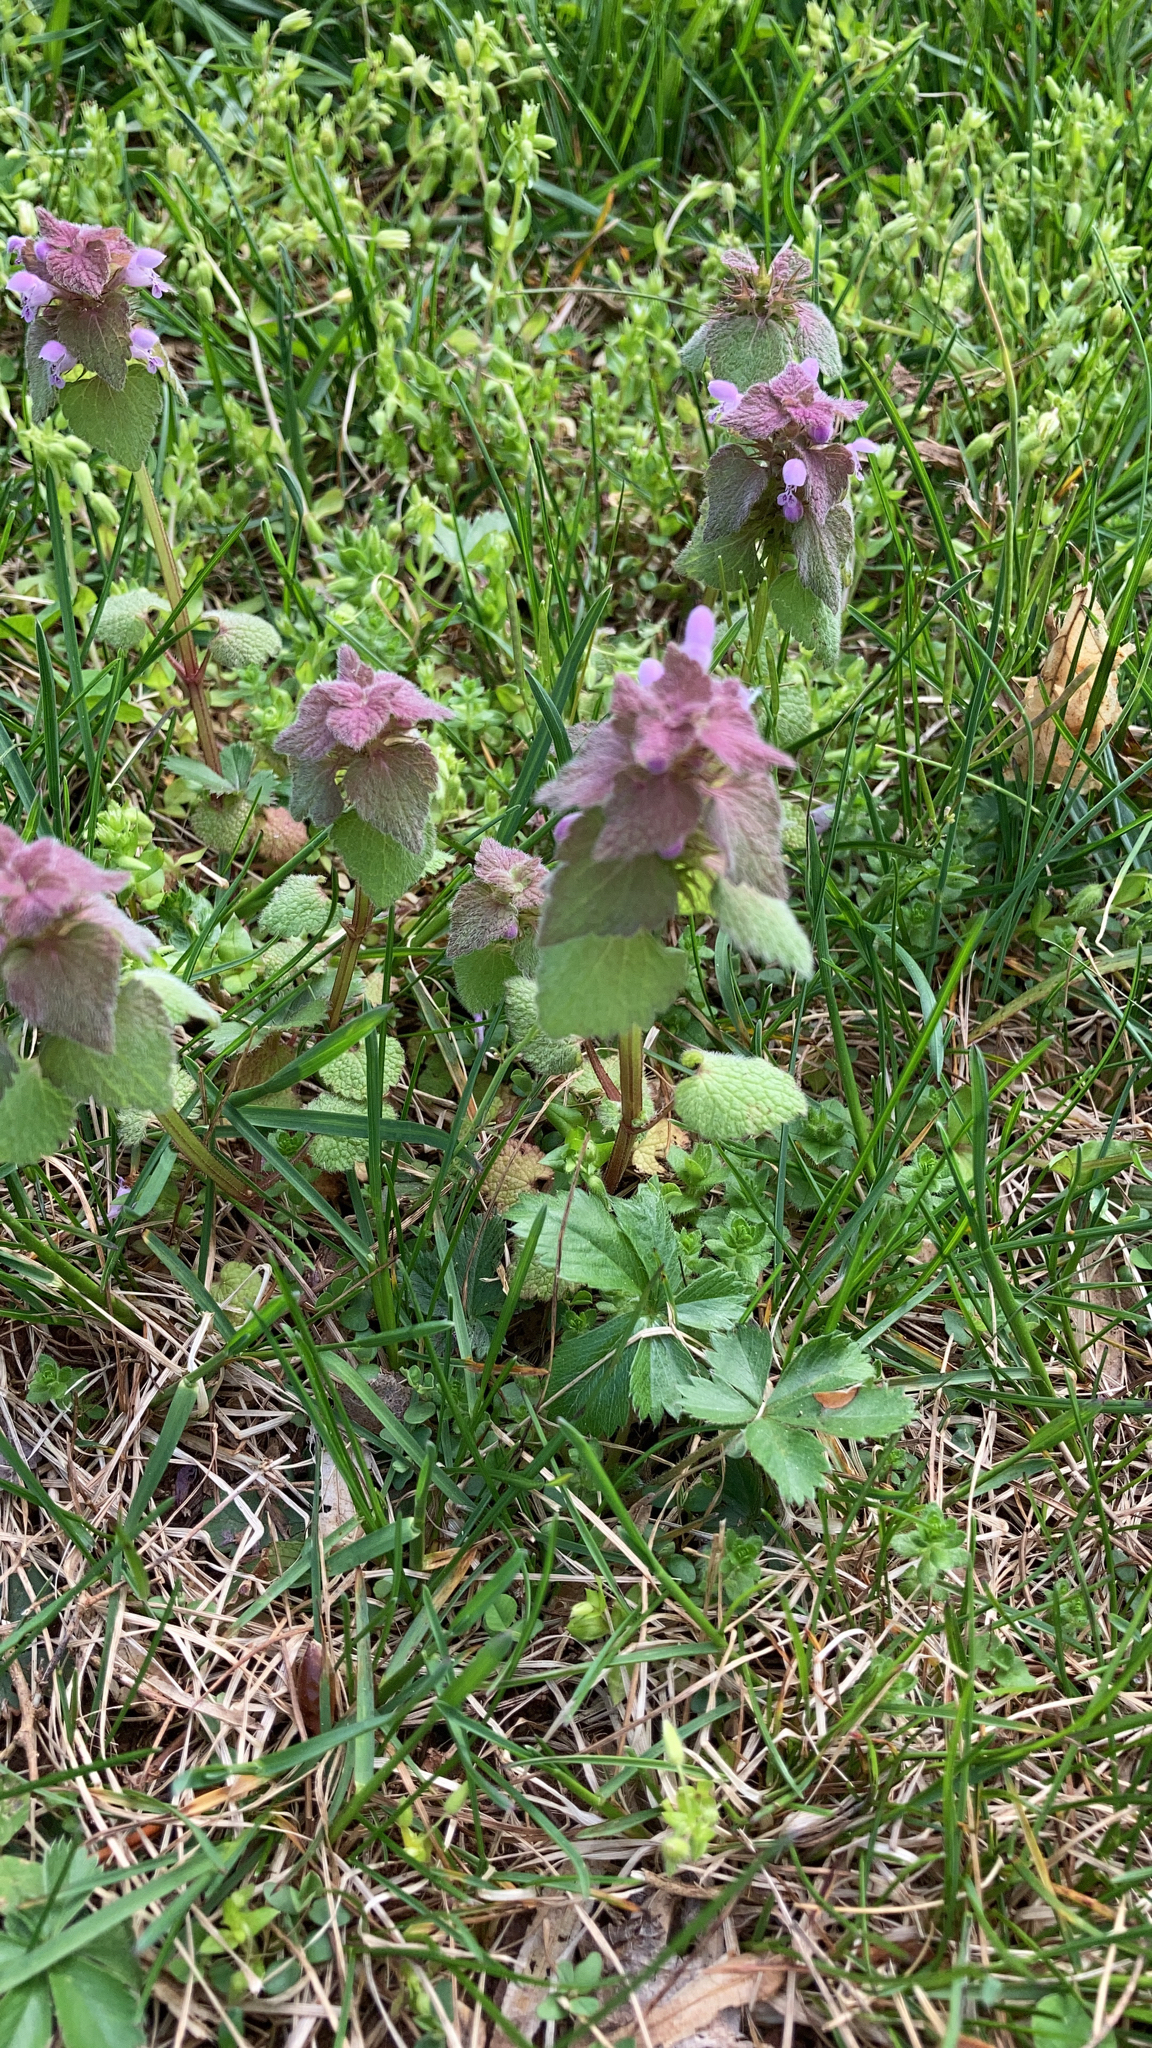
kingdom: Plantae
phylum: Tracheophyta
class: Magnoliopsida
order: Lamiales
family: Lamiaceae
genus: Lamium
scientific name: Lamium purpureum
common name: Red dead-nettle
